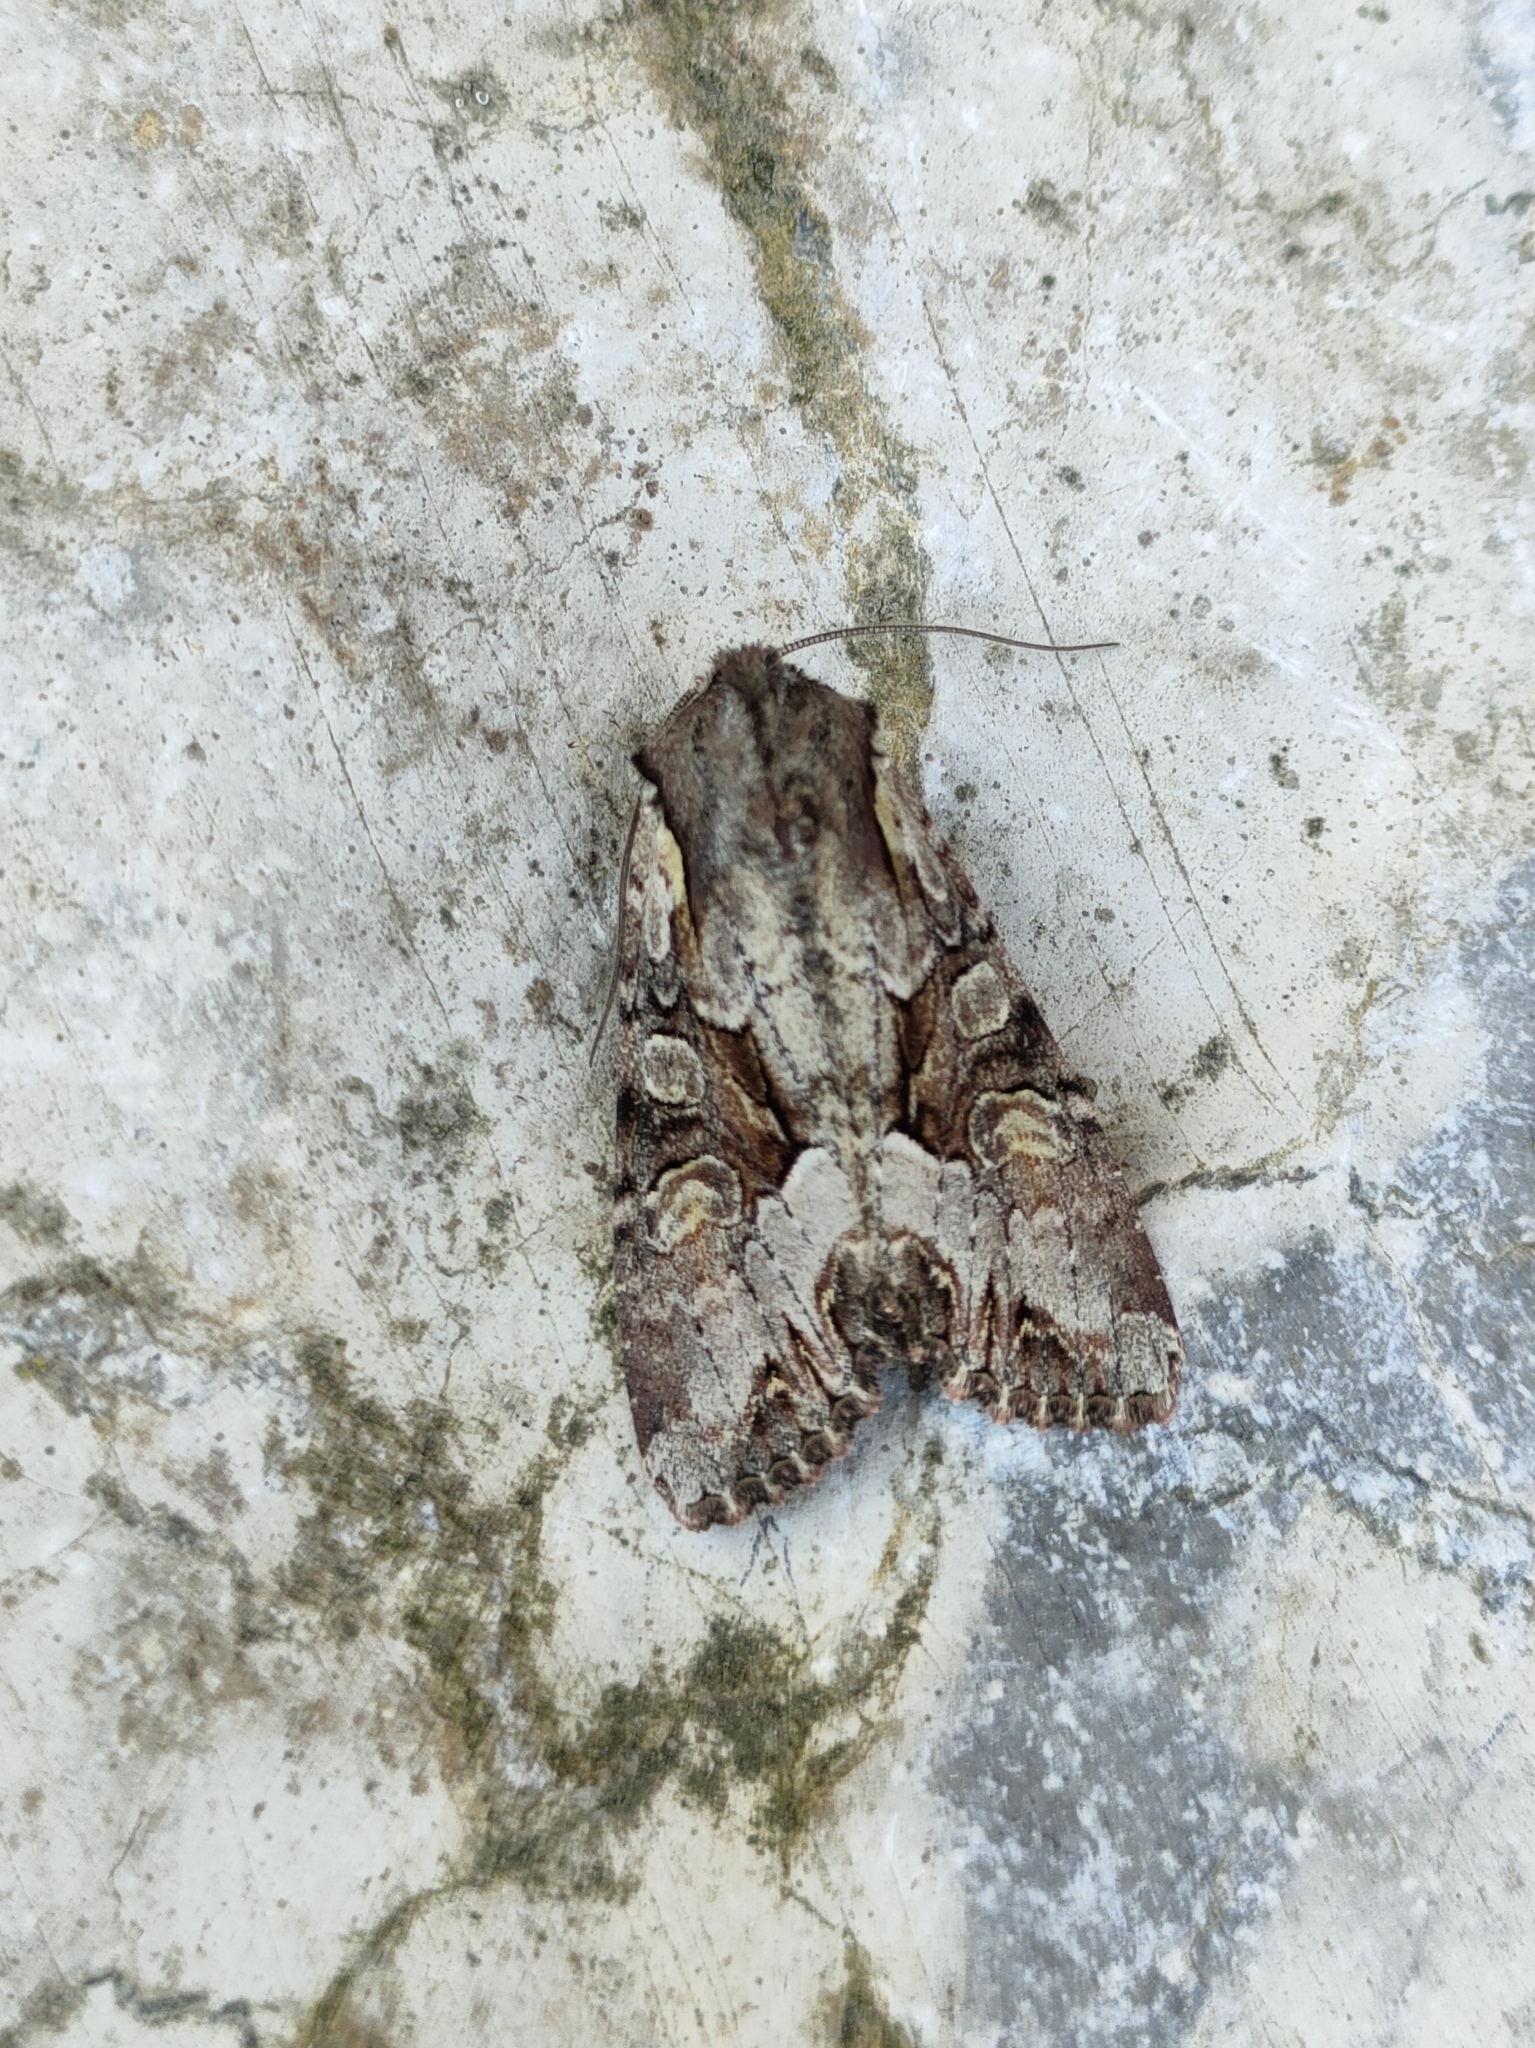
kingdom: Animalia
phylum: Arthropoda
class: Insecta
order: Lepidoptera
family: Noctuidae
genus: Lacanobia
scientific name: Lacanobia w-latinum
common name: Light brocade
